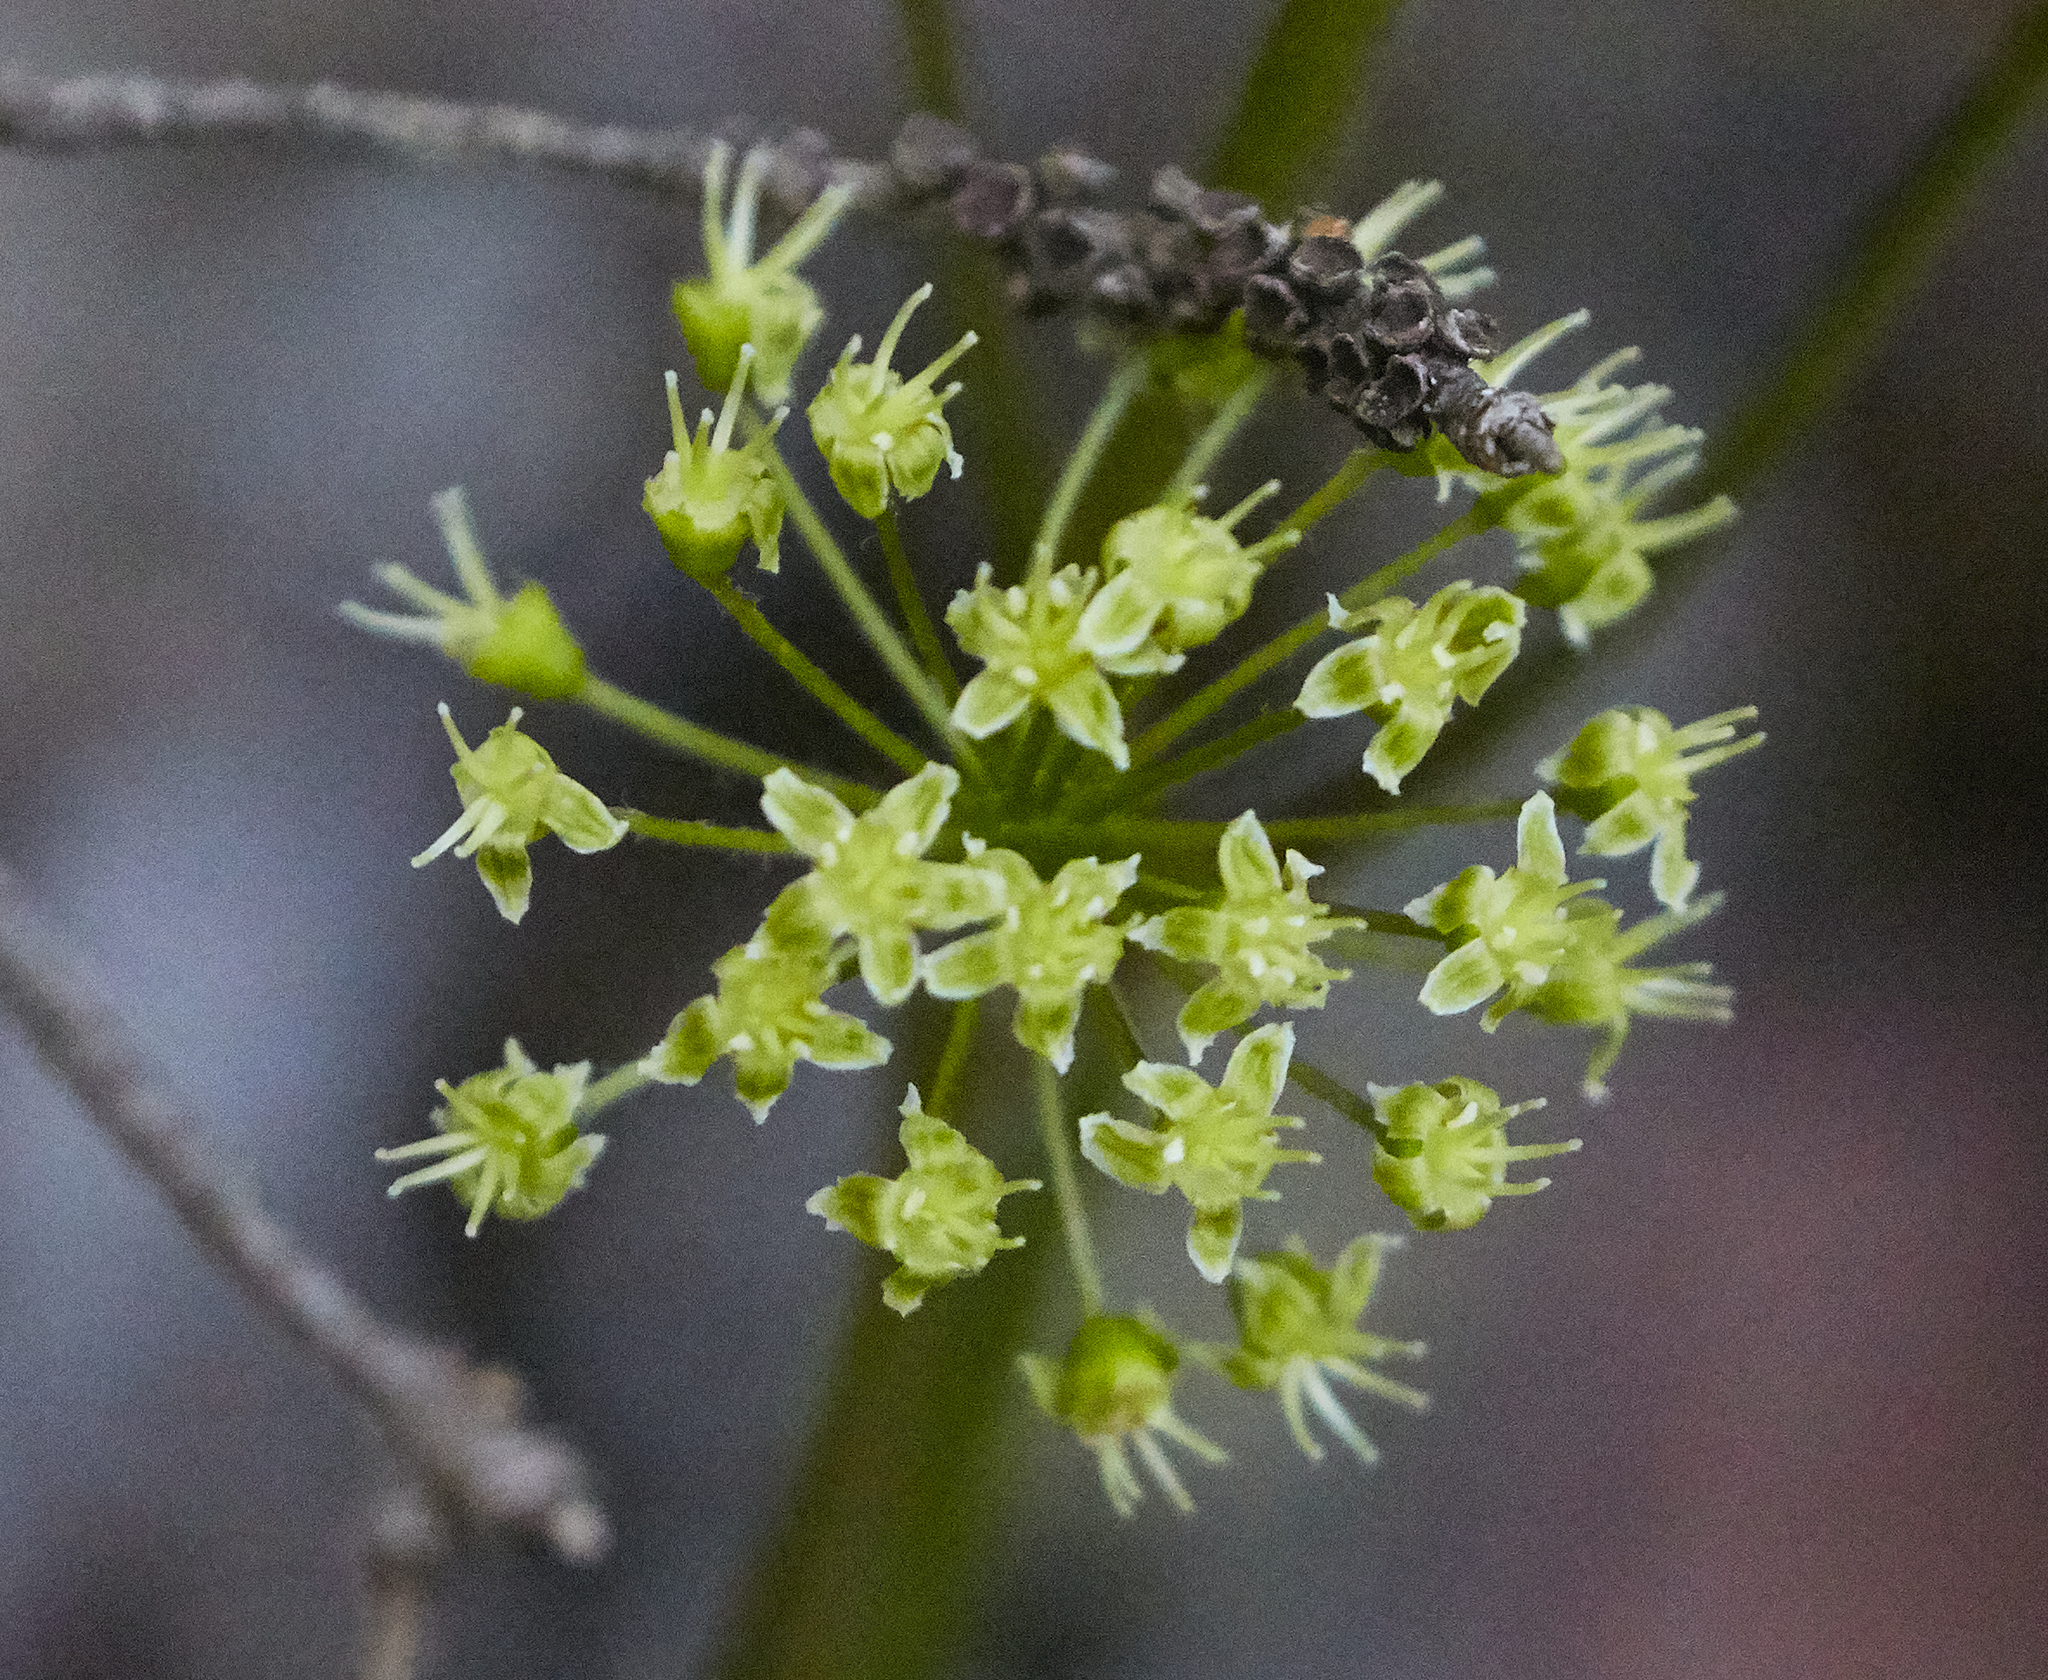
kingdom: Plantae
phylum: Tracheophyta
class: Liliopsida
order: Liliales
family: Smilacaceae
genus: Smilax
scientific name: Smilax herbacea
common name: Jacob's-ladder
